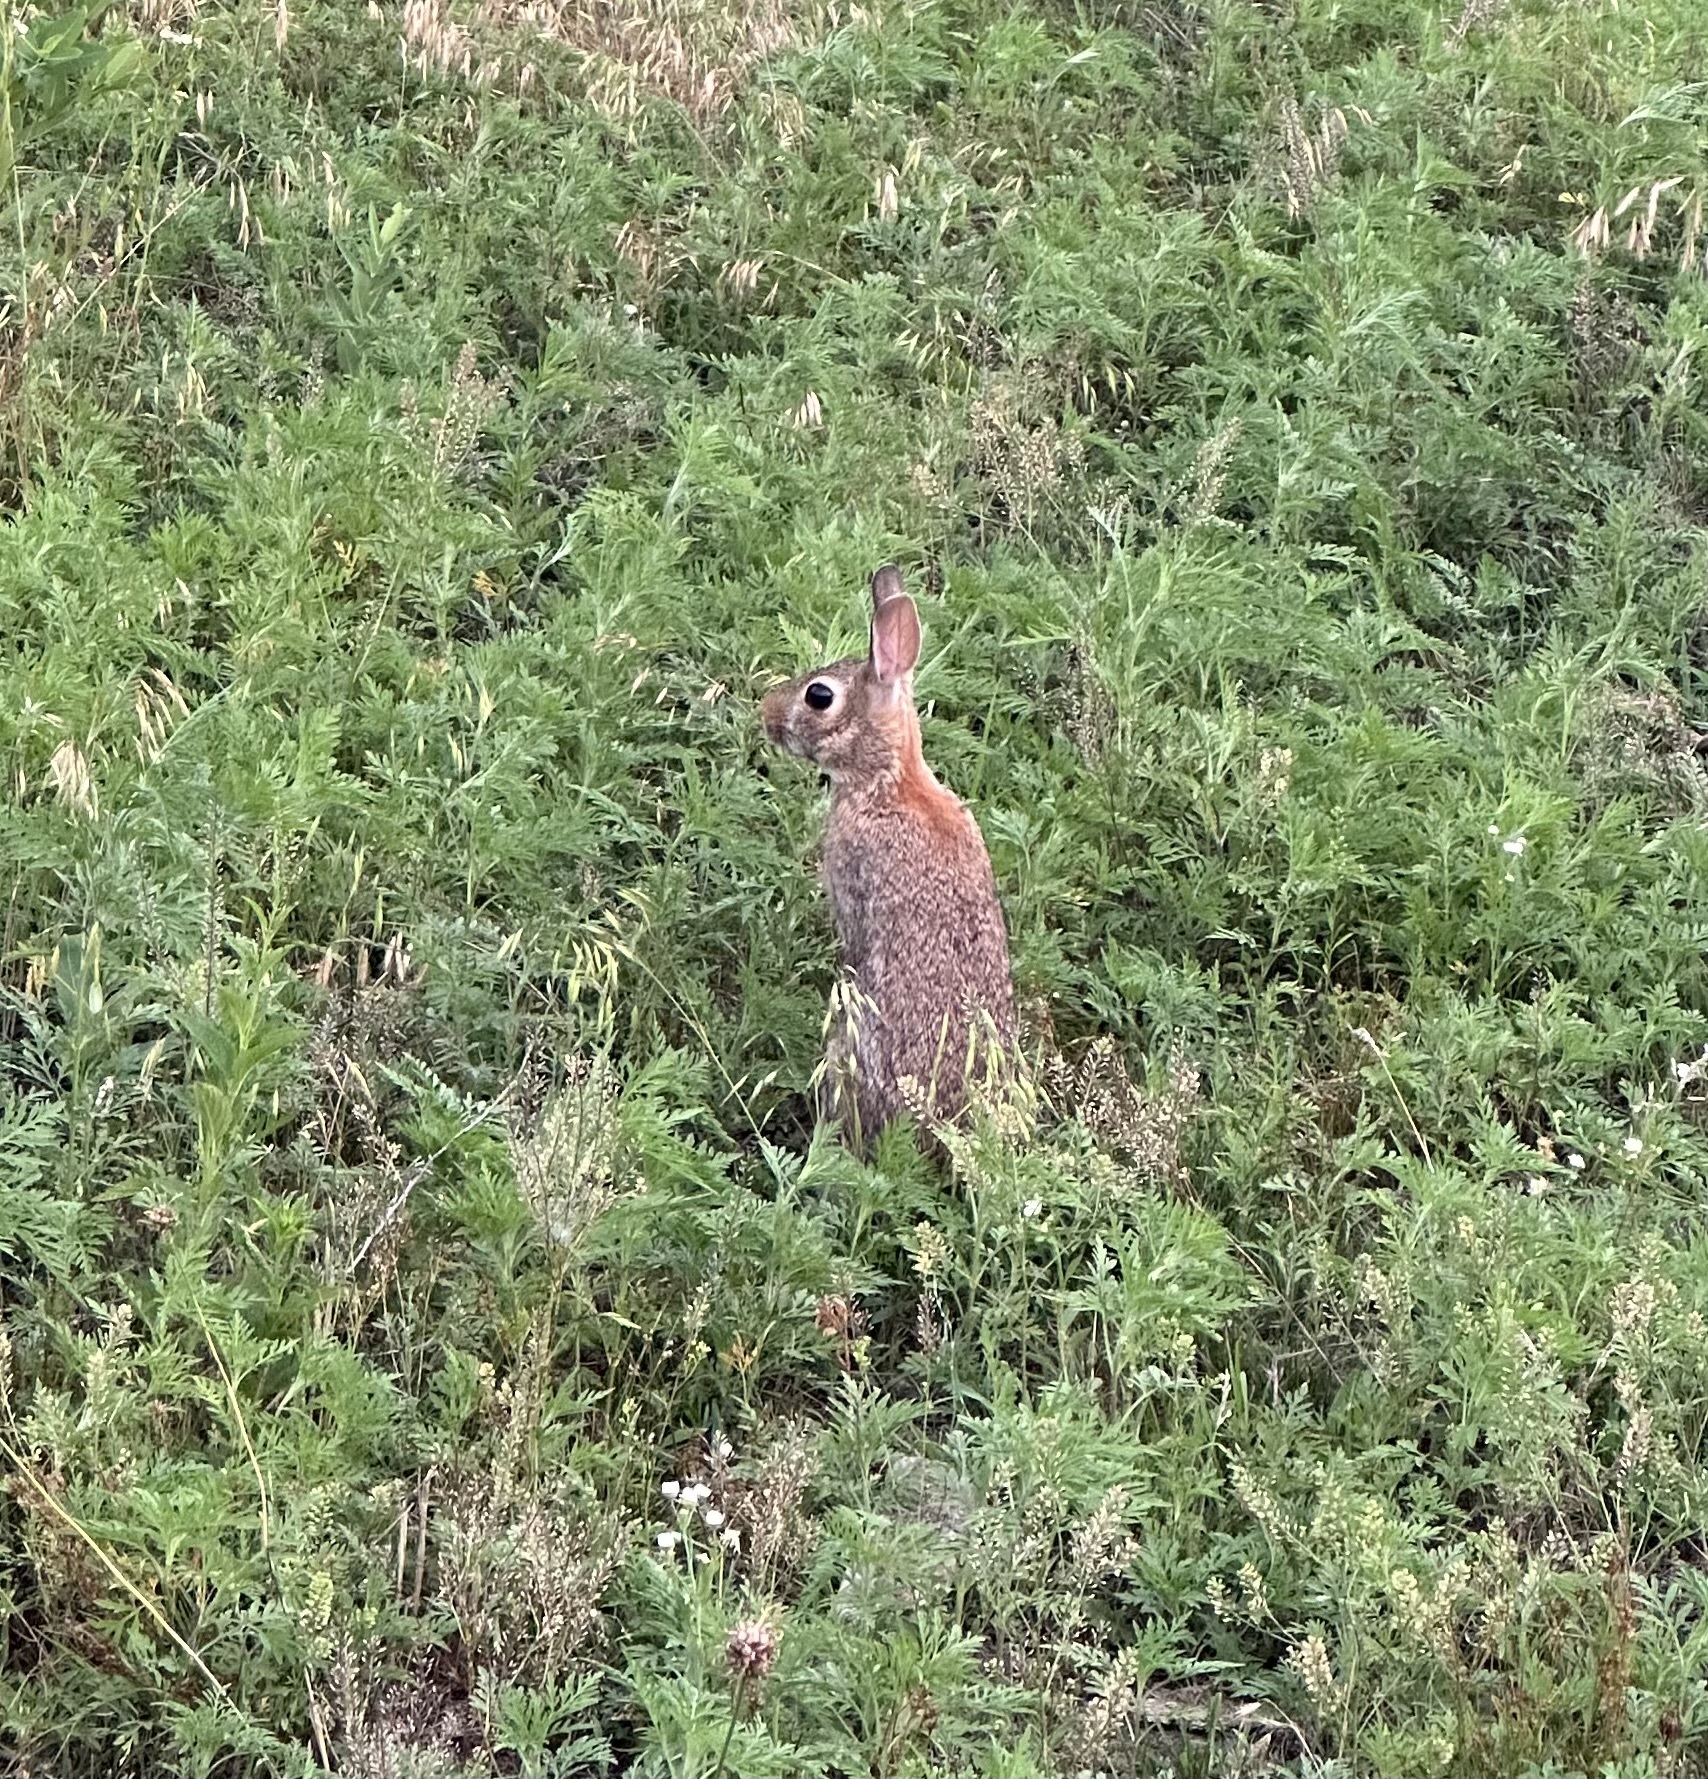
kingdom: Animalia
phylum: Chordata
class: Mammalia
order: Lagomorpha
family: Leporidae
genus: Sylvilagus
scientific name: Sylvilagus floridanus
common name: Eastern cottontail
